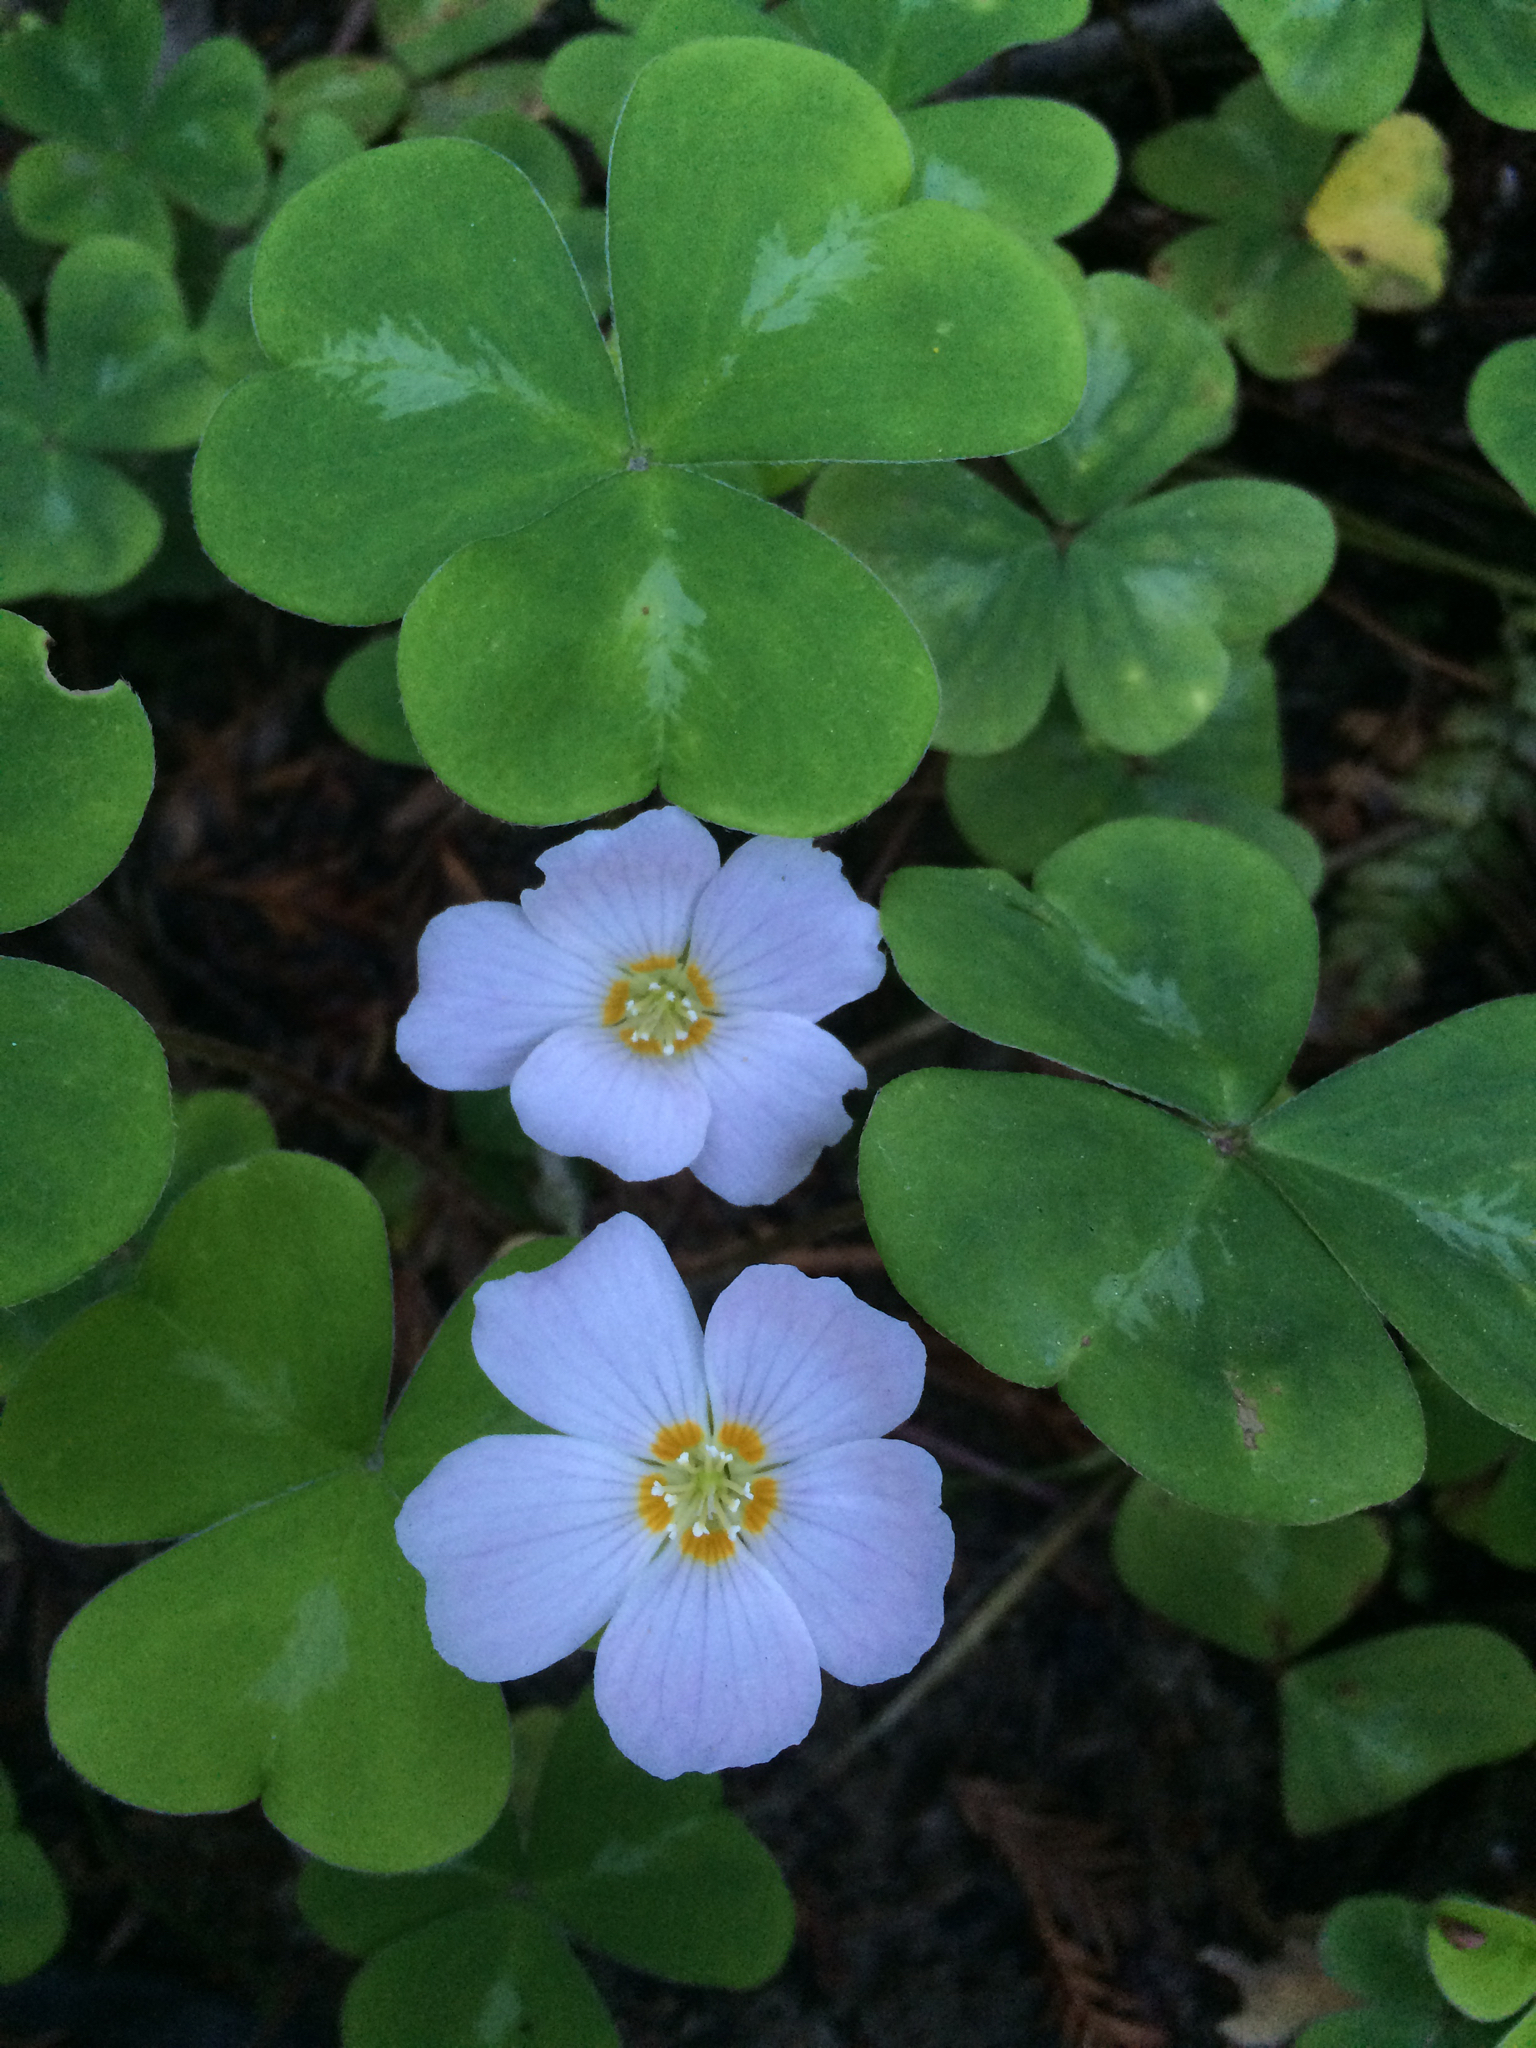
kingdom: Plantae
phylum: Tracheophyta
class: Magnoliopsida
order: Oxalidales
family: Oxalidaceae
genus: Oxalis
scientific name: Oxalis oregana
